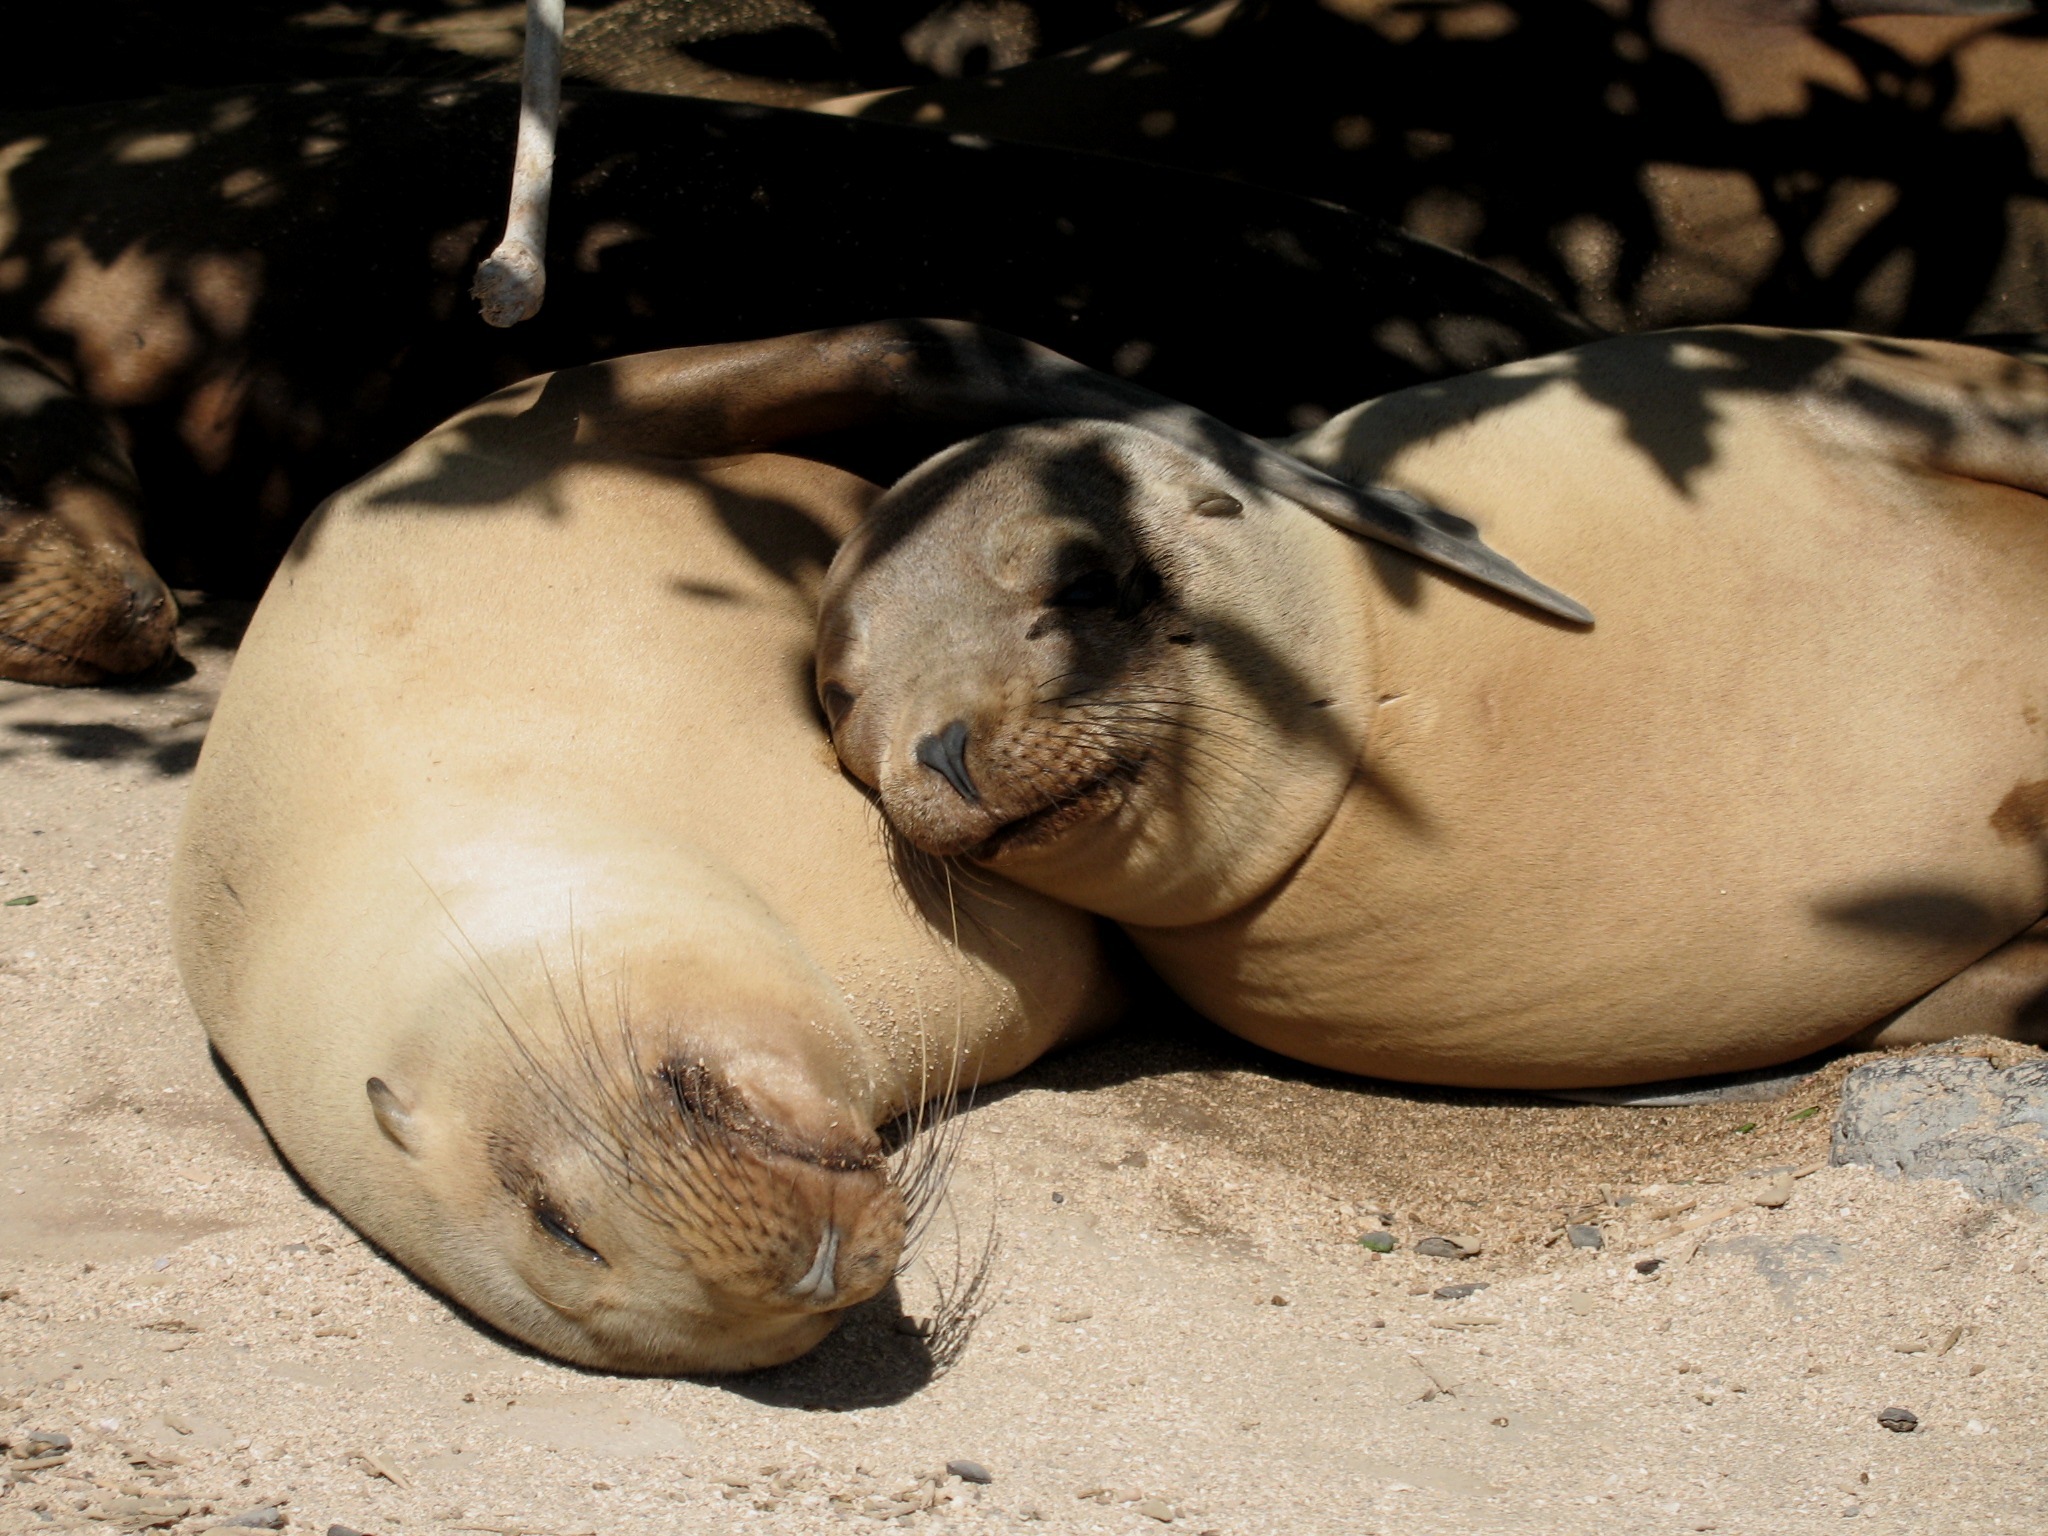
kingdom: Animalia
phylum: Chordata
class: Mammalia
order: Carnivora
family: Otariidae
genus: Zalophus
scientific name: Zalophus wollebaeki
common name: Galapagos sea lion
